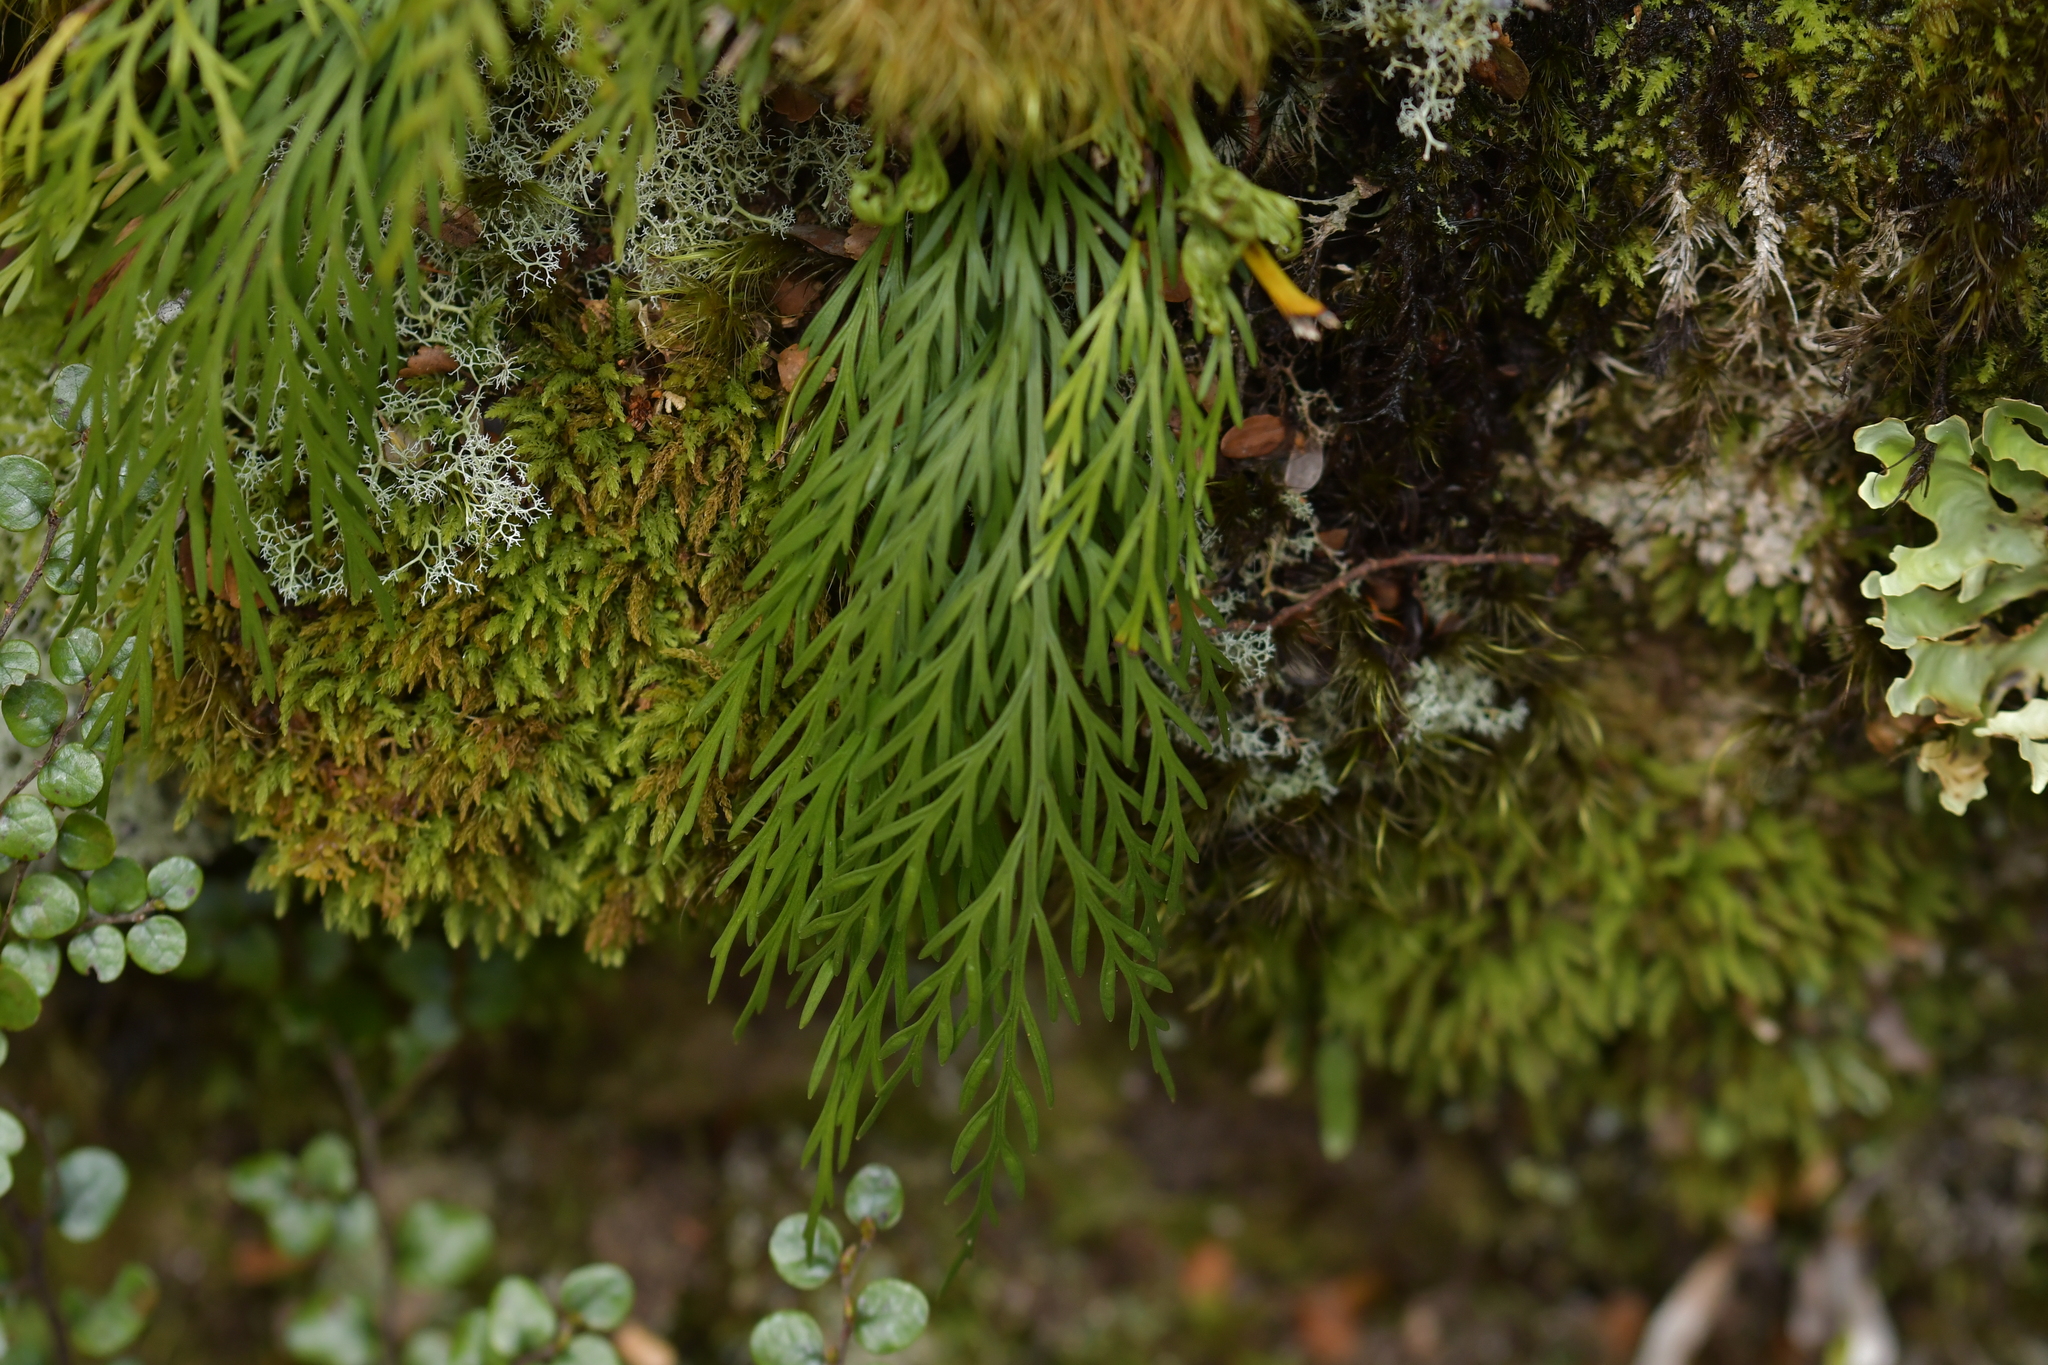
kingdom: Plantae
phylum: Tracheophyta
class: Polypodiopsida
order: Polypodiales
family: Aspleniaceae
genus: Asplenium
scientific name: Asplenium flaccidum
